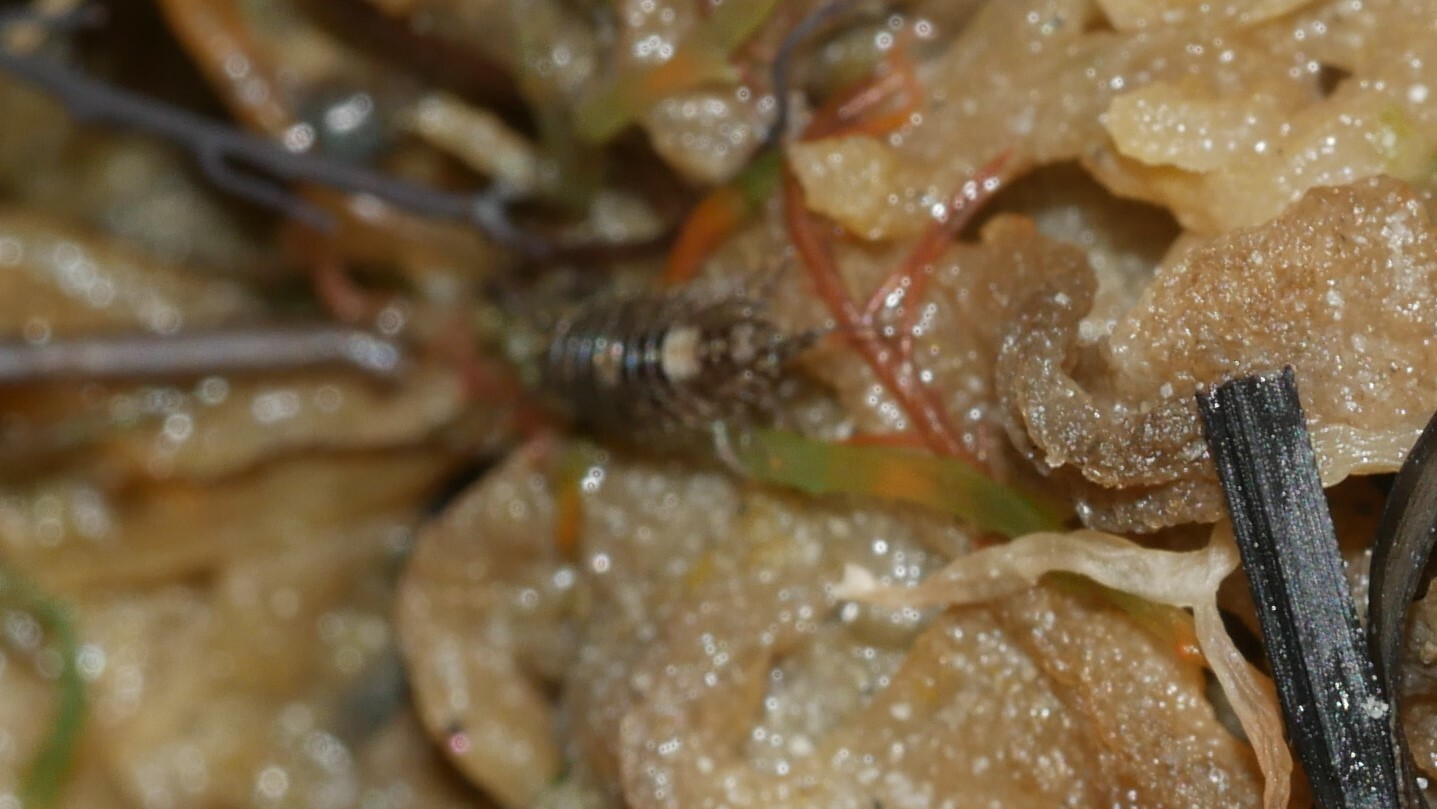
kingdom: Animalia
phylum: Arthropoda
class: Malacostraca
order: Isopoda
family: Ligiidae
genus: Ligia
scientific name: Ligia exotica
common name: Wharf roach
